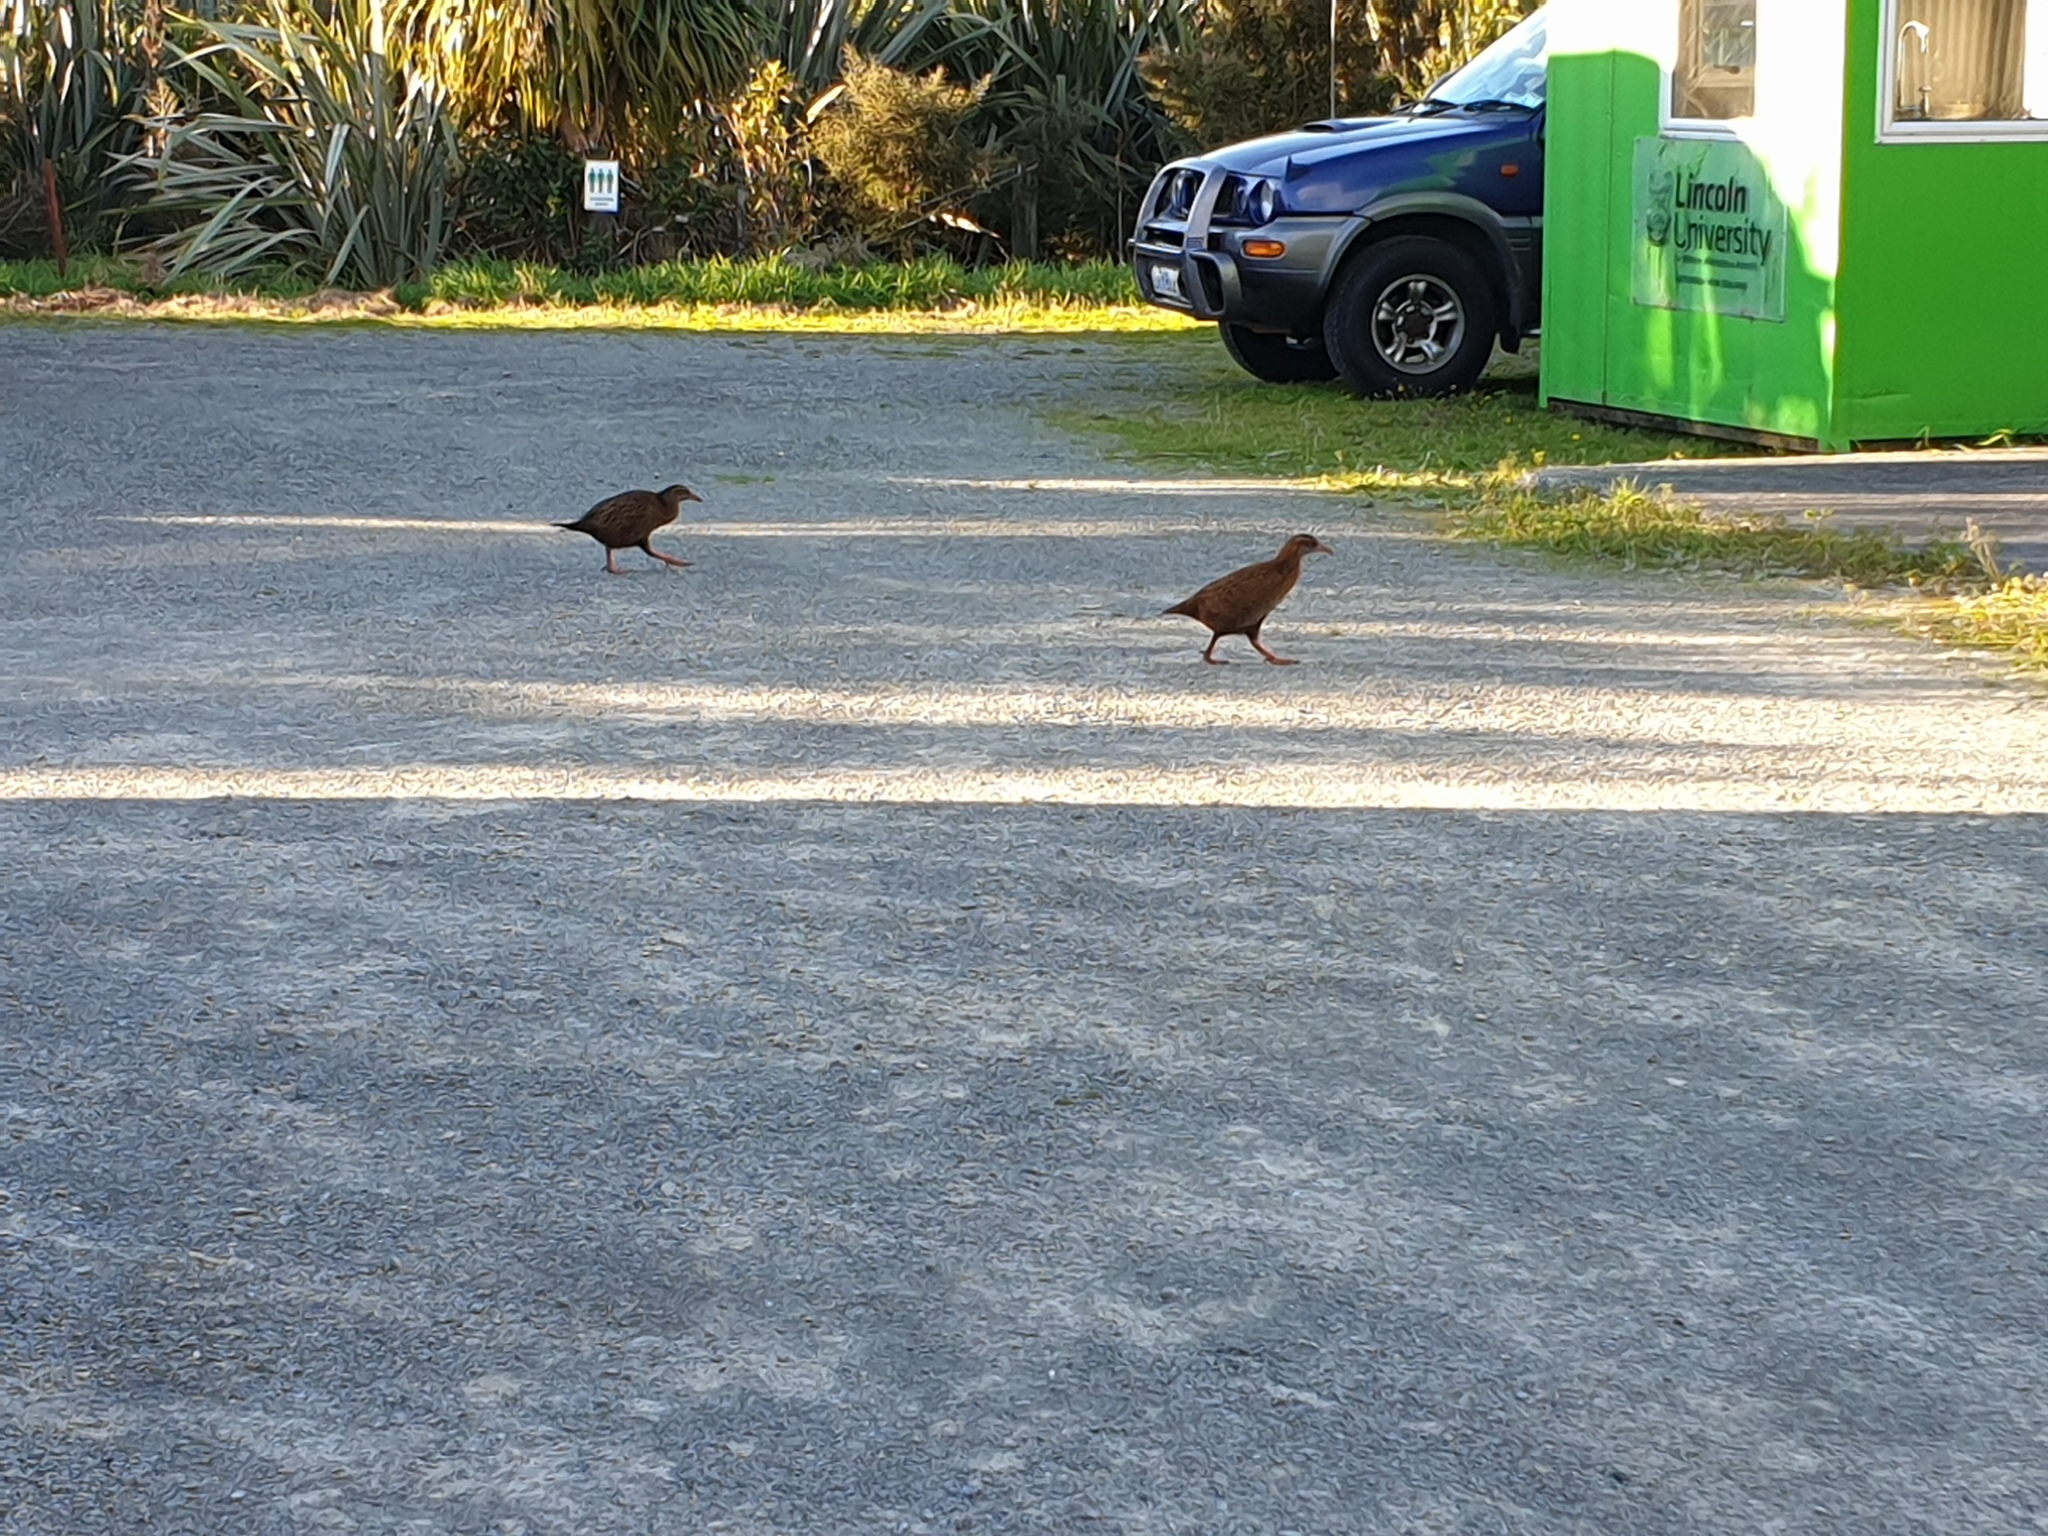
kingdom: Animalia
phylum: Chordata
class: Aves
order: Gruiformes
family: Rallidae
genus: Gallirallus
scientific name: Gallirallus australis
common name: Weka
